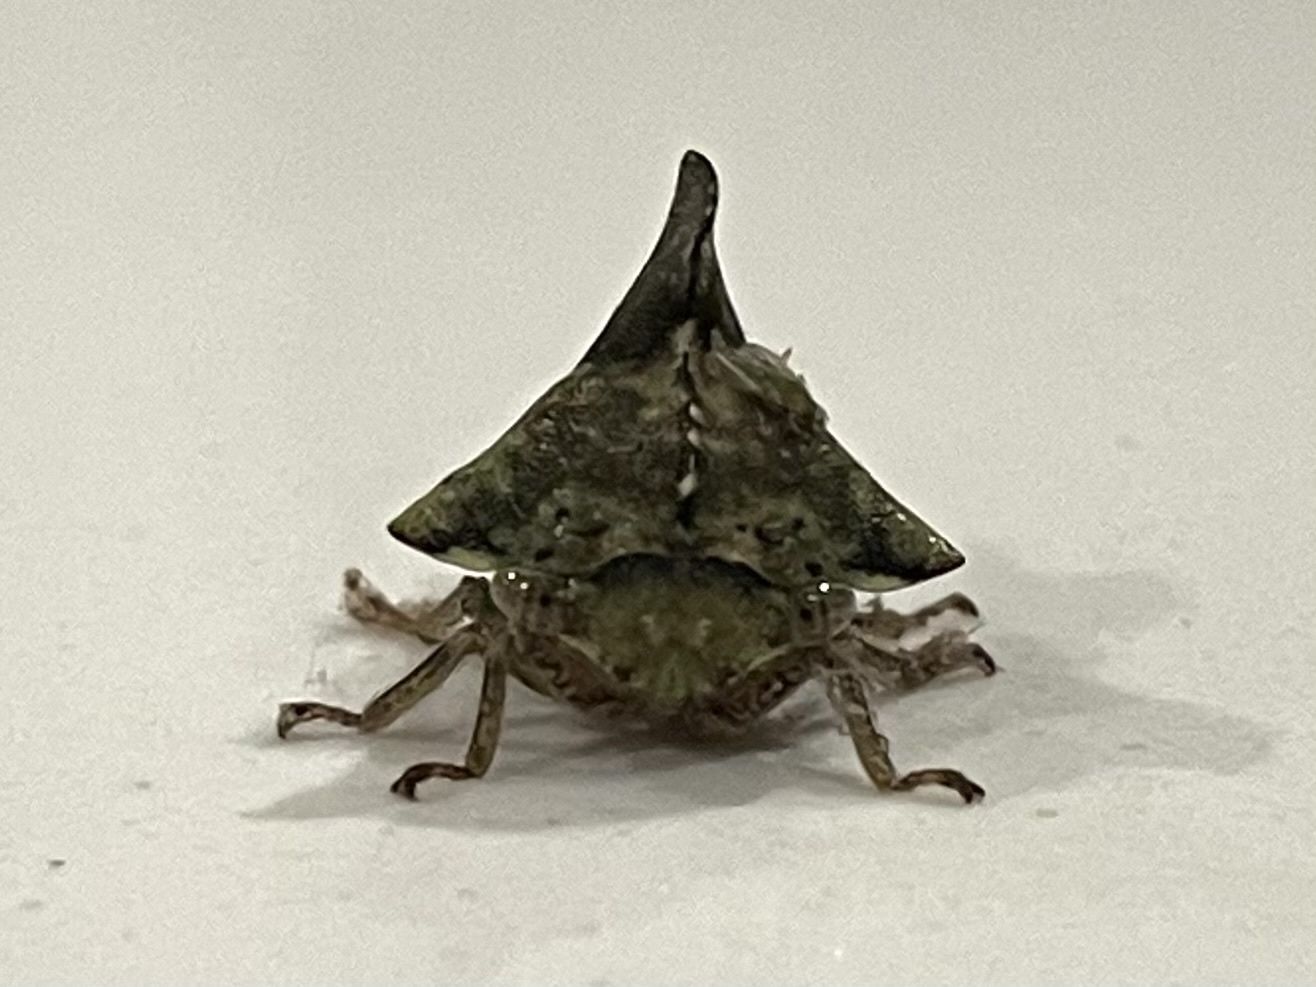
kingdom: Animalia
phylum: Arthropoda
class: Insecta
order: Hemiptera
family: Membracidae
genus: Heliria
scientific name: Heliria cristata
